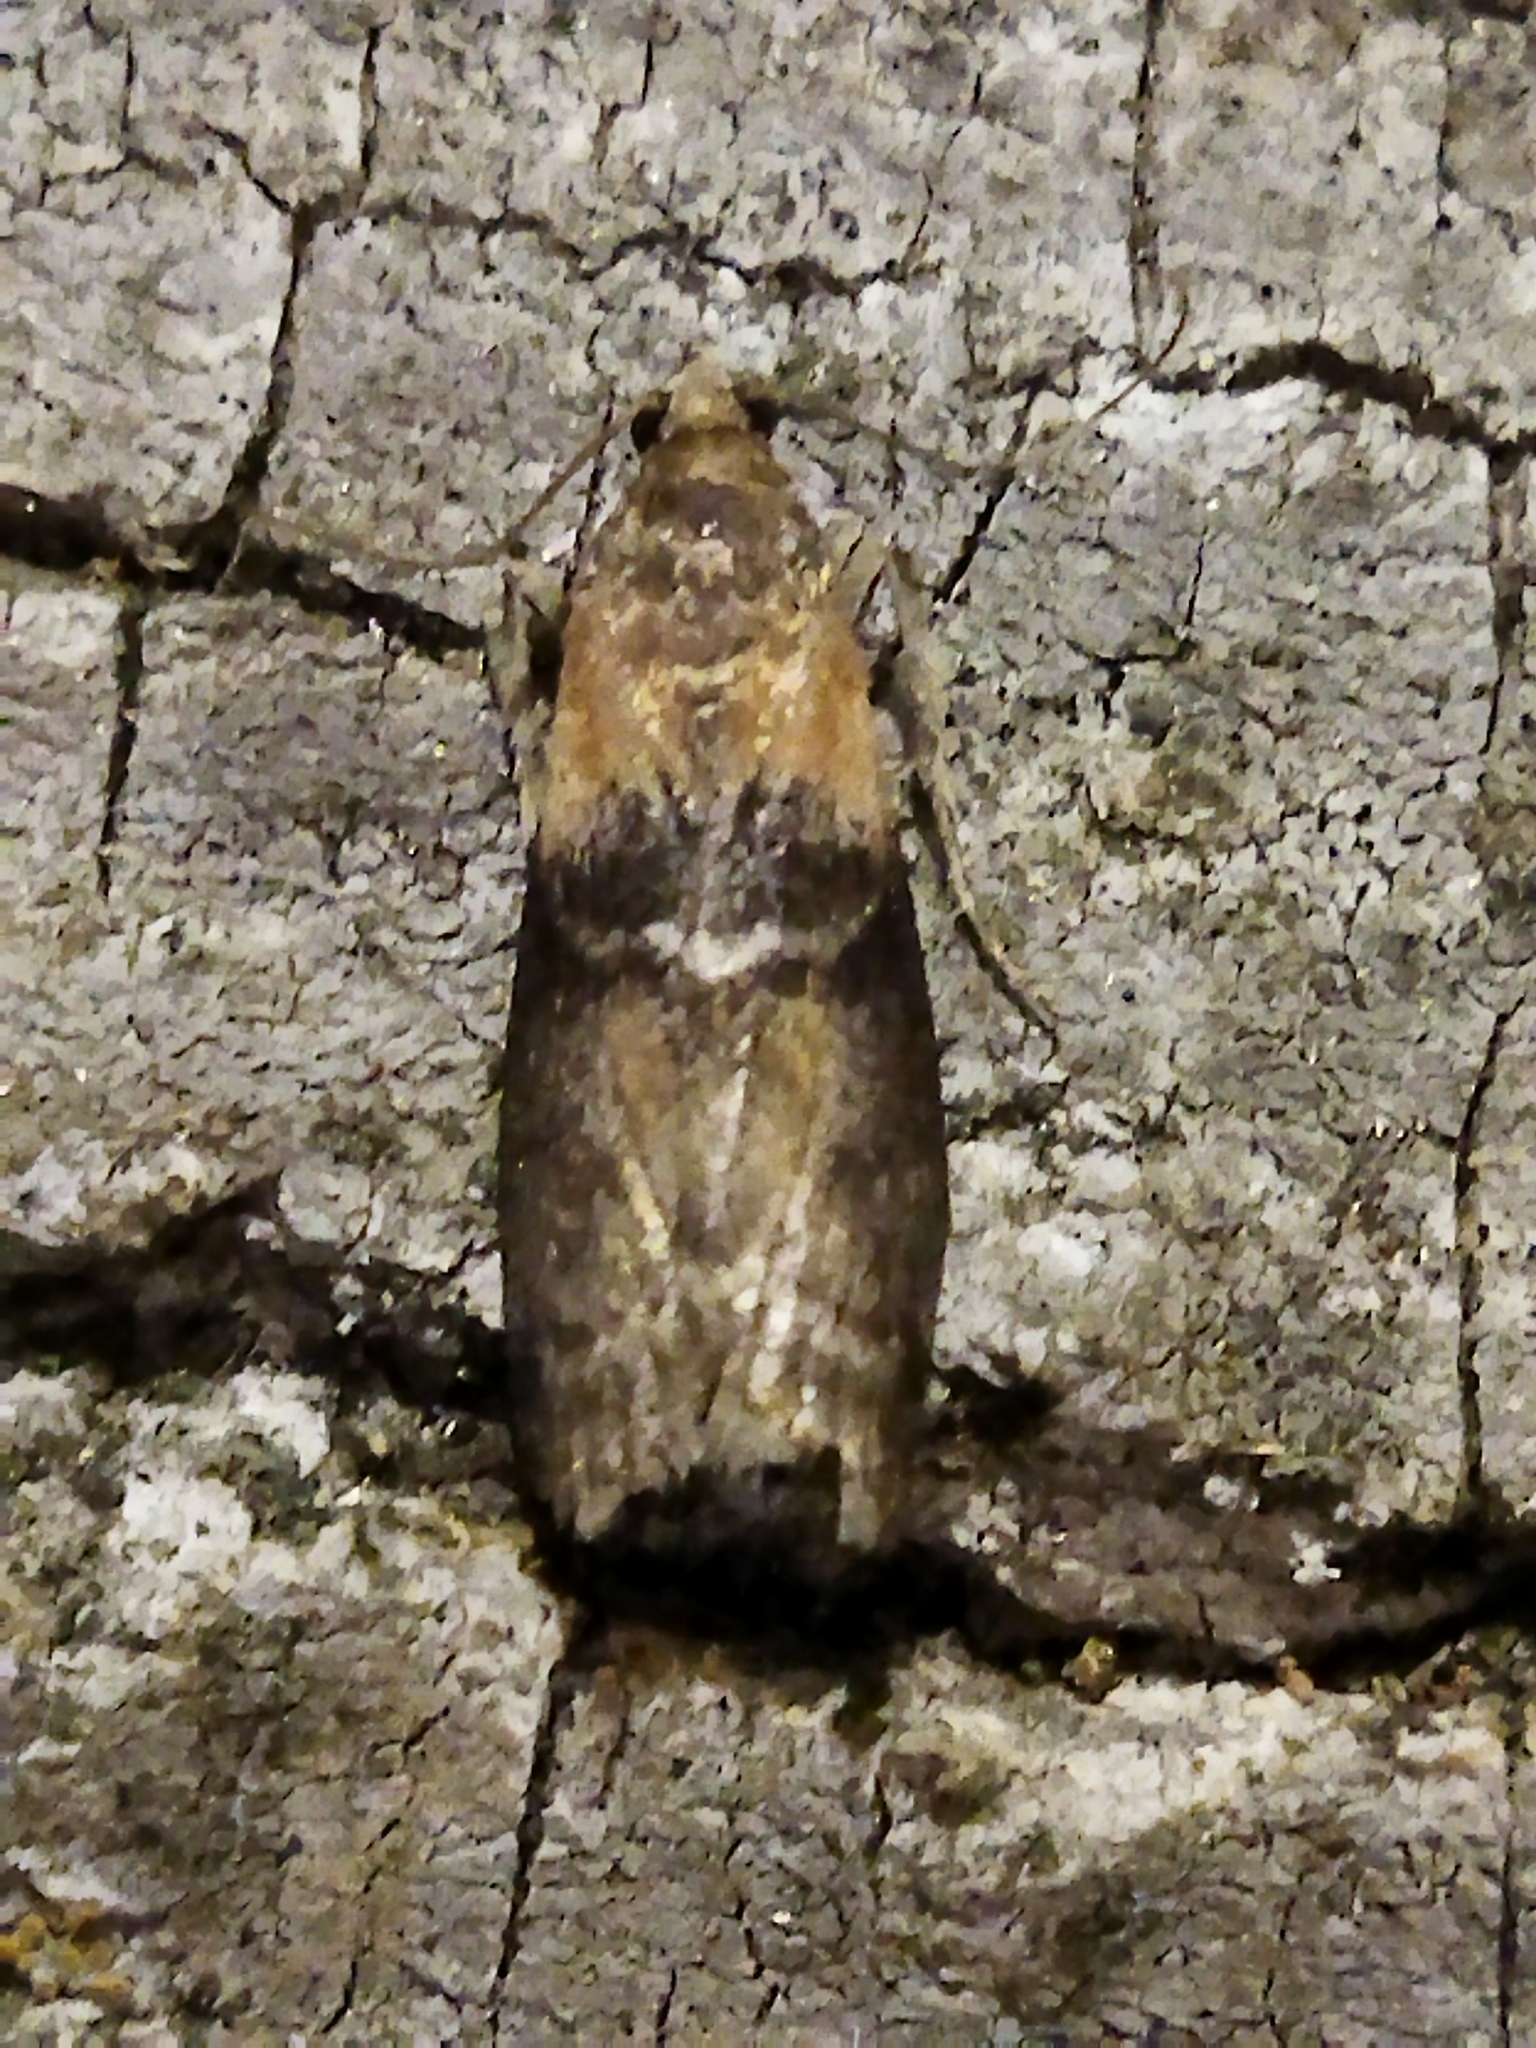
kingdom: Animalia
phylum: Arthropoda
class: Insecta
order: Lepidoptera
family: Pyralidae
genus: Sciota
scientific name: Sciota adelphella
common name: Willow knot-horn
